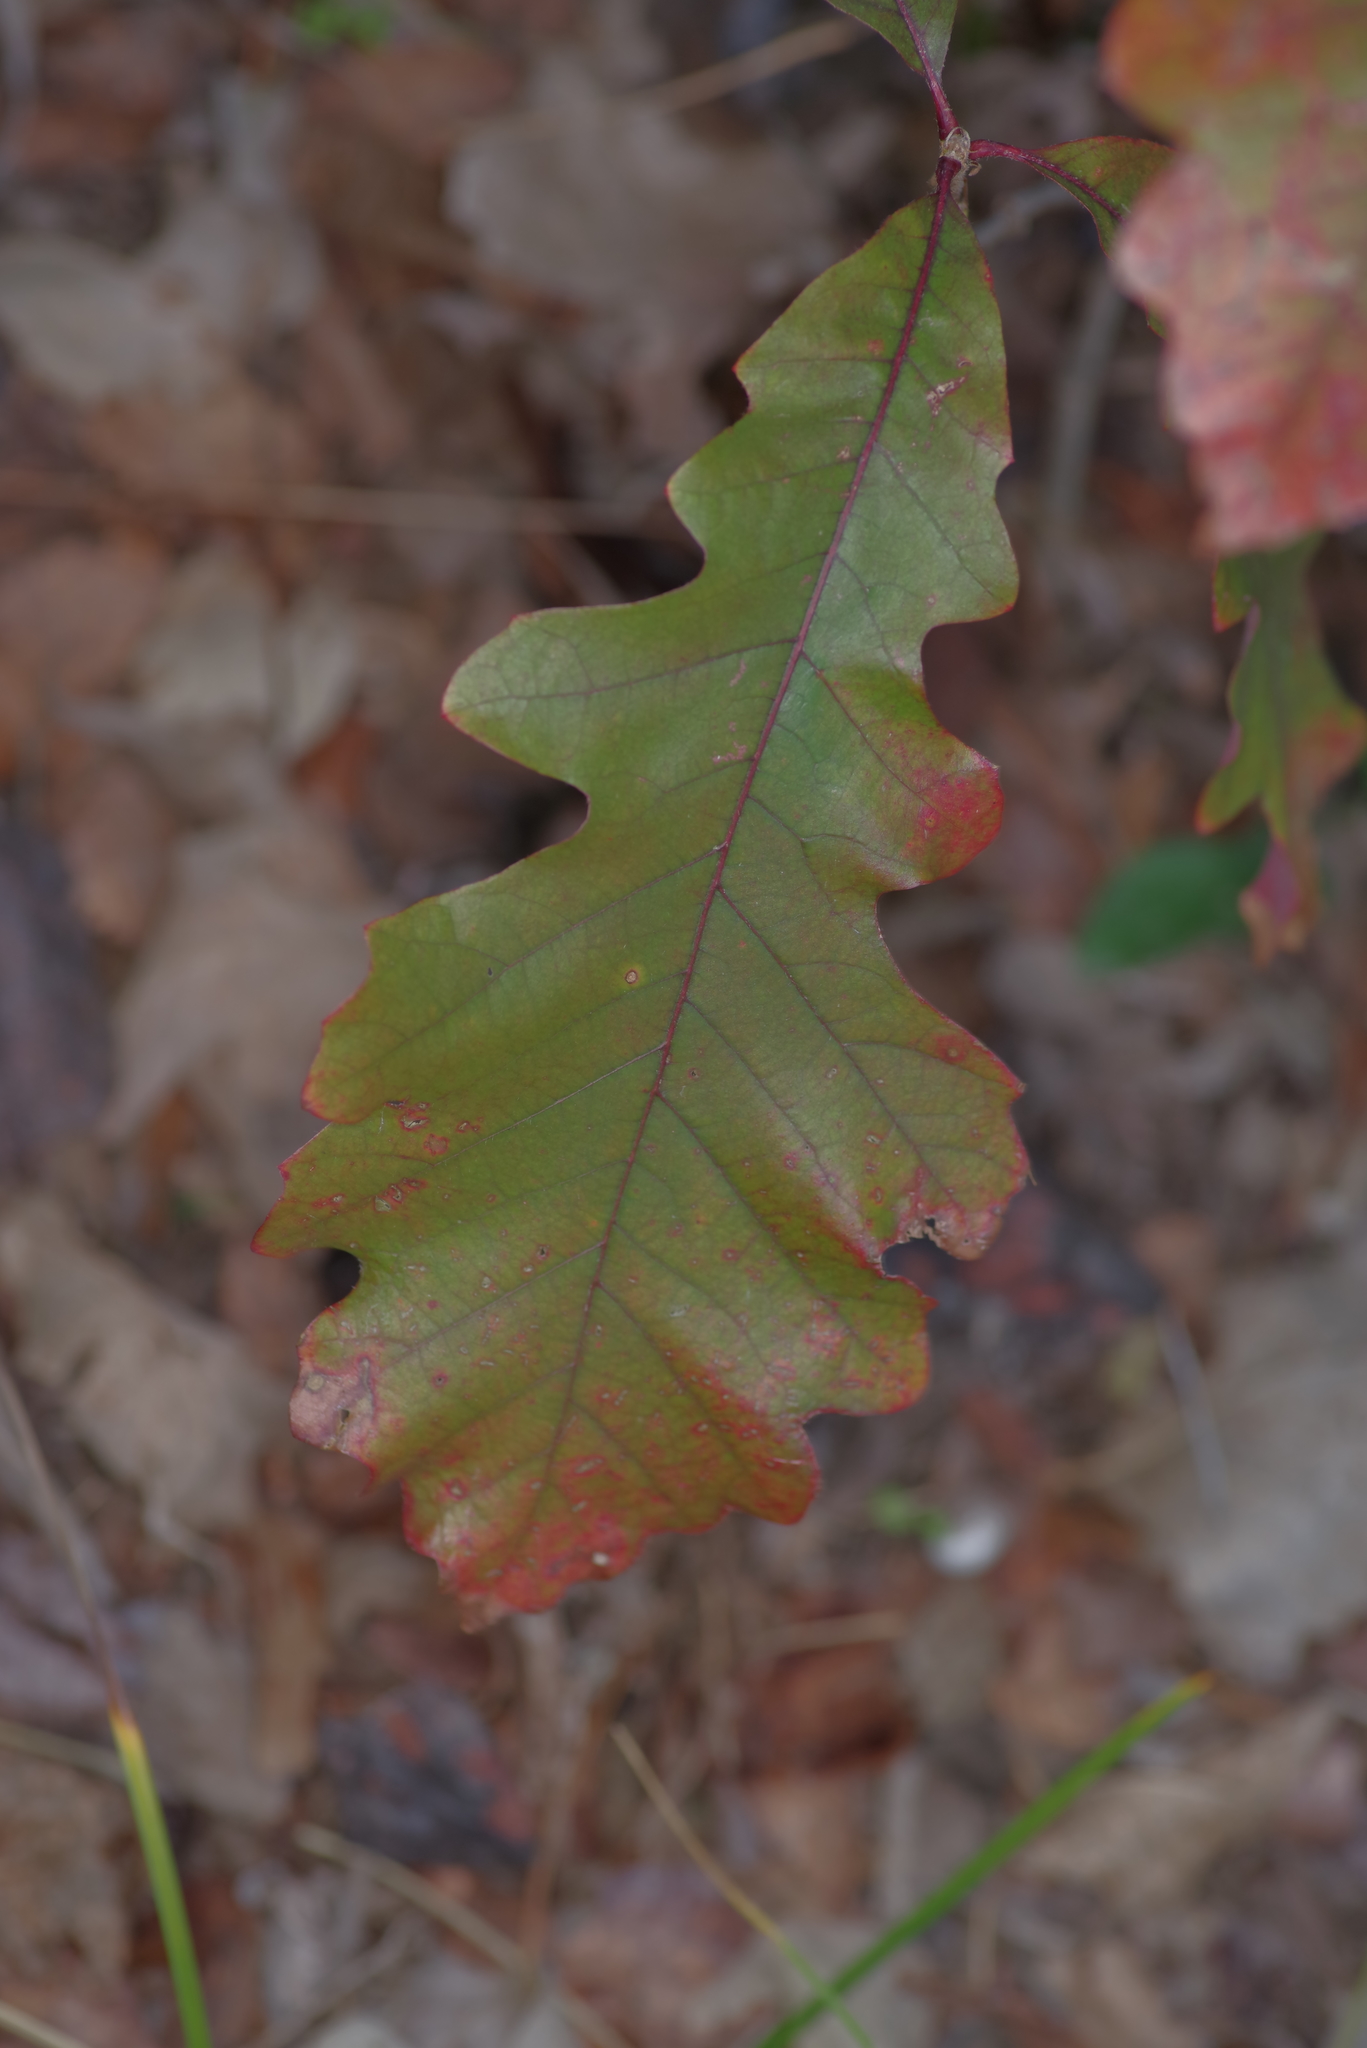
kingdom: Plantae
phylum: Tracheophyta
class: Magnoliopsida
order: Fagales
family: Fagaceae
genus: Quercus
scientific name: Quercus macrocarpa
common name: Bur oak
